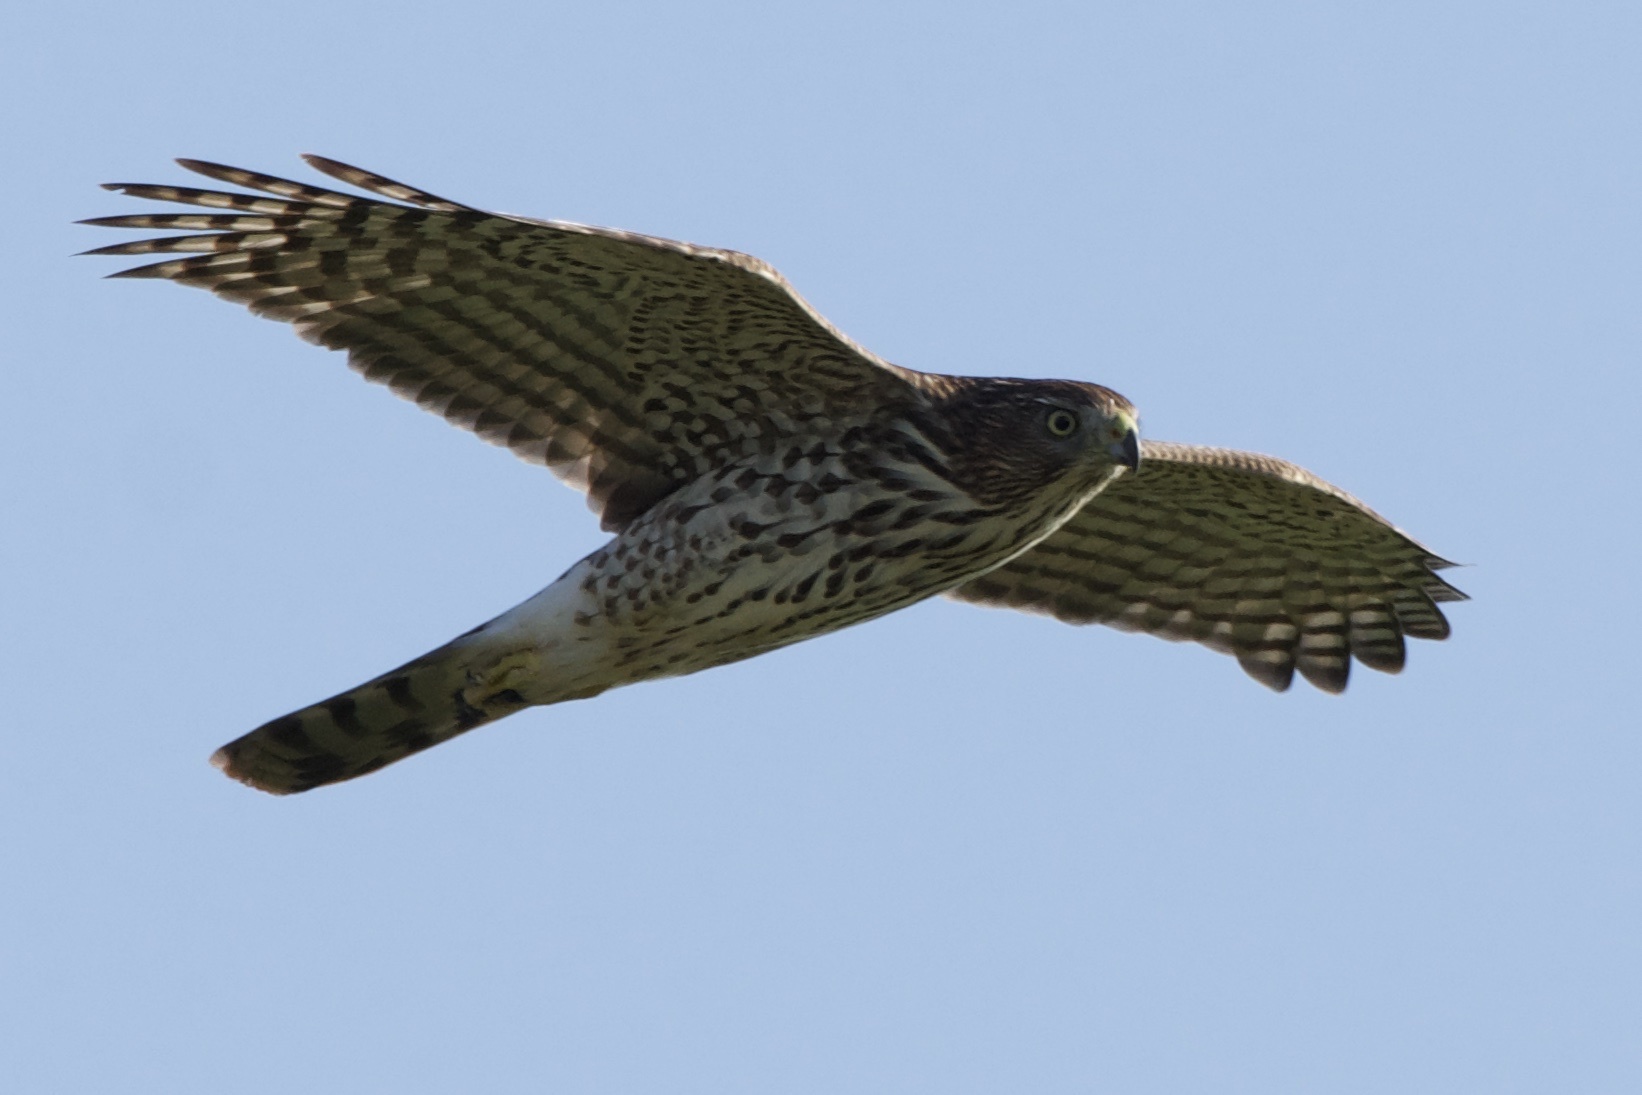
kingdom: Animalia
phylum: Chordata
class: Aves
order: Accipitriformes
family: Accipitridae
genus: Accipiter
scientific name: Accipiter cooperii
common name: Cooper's hawk
